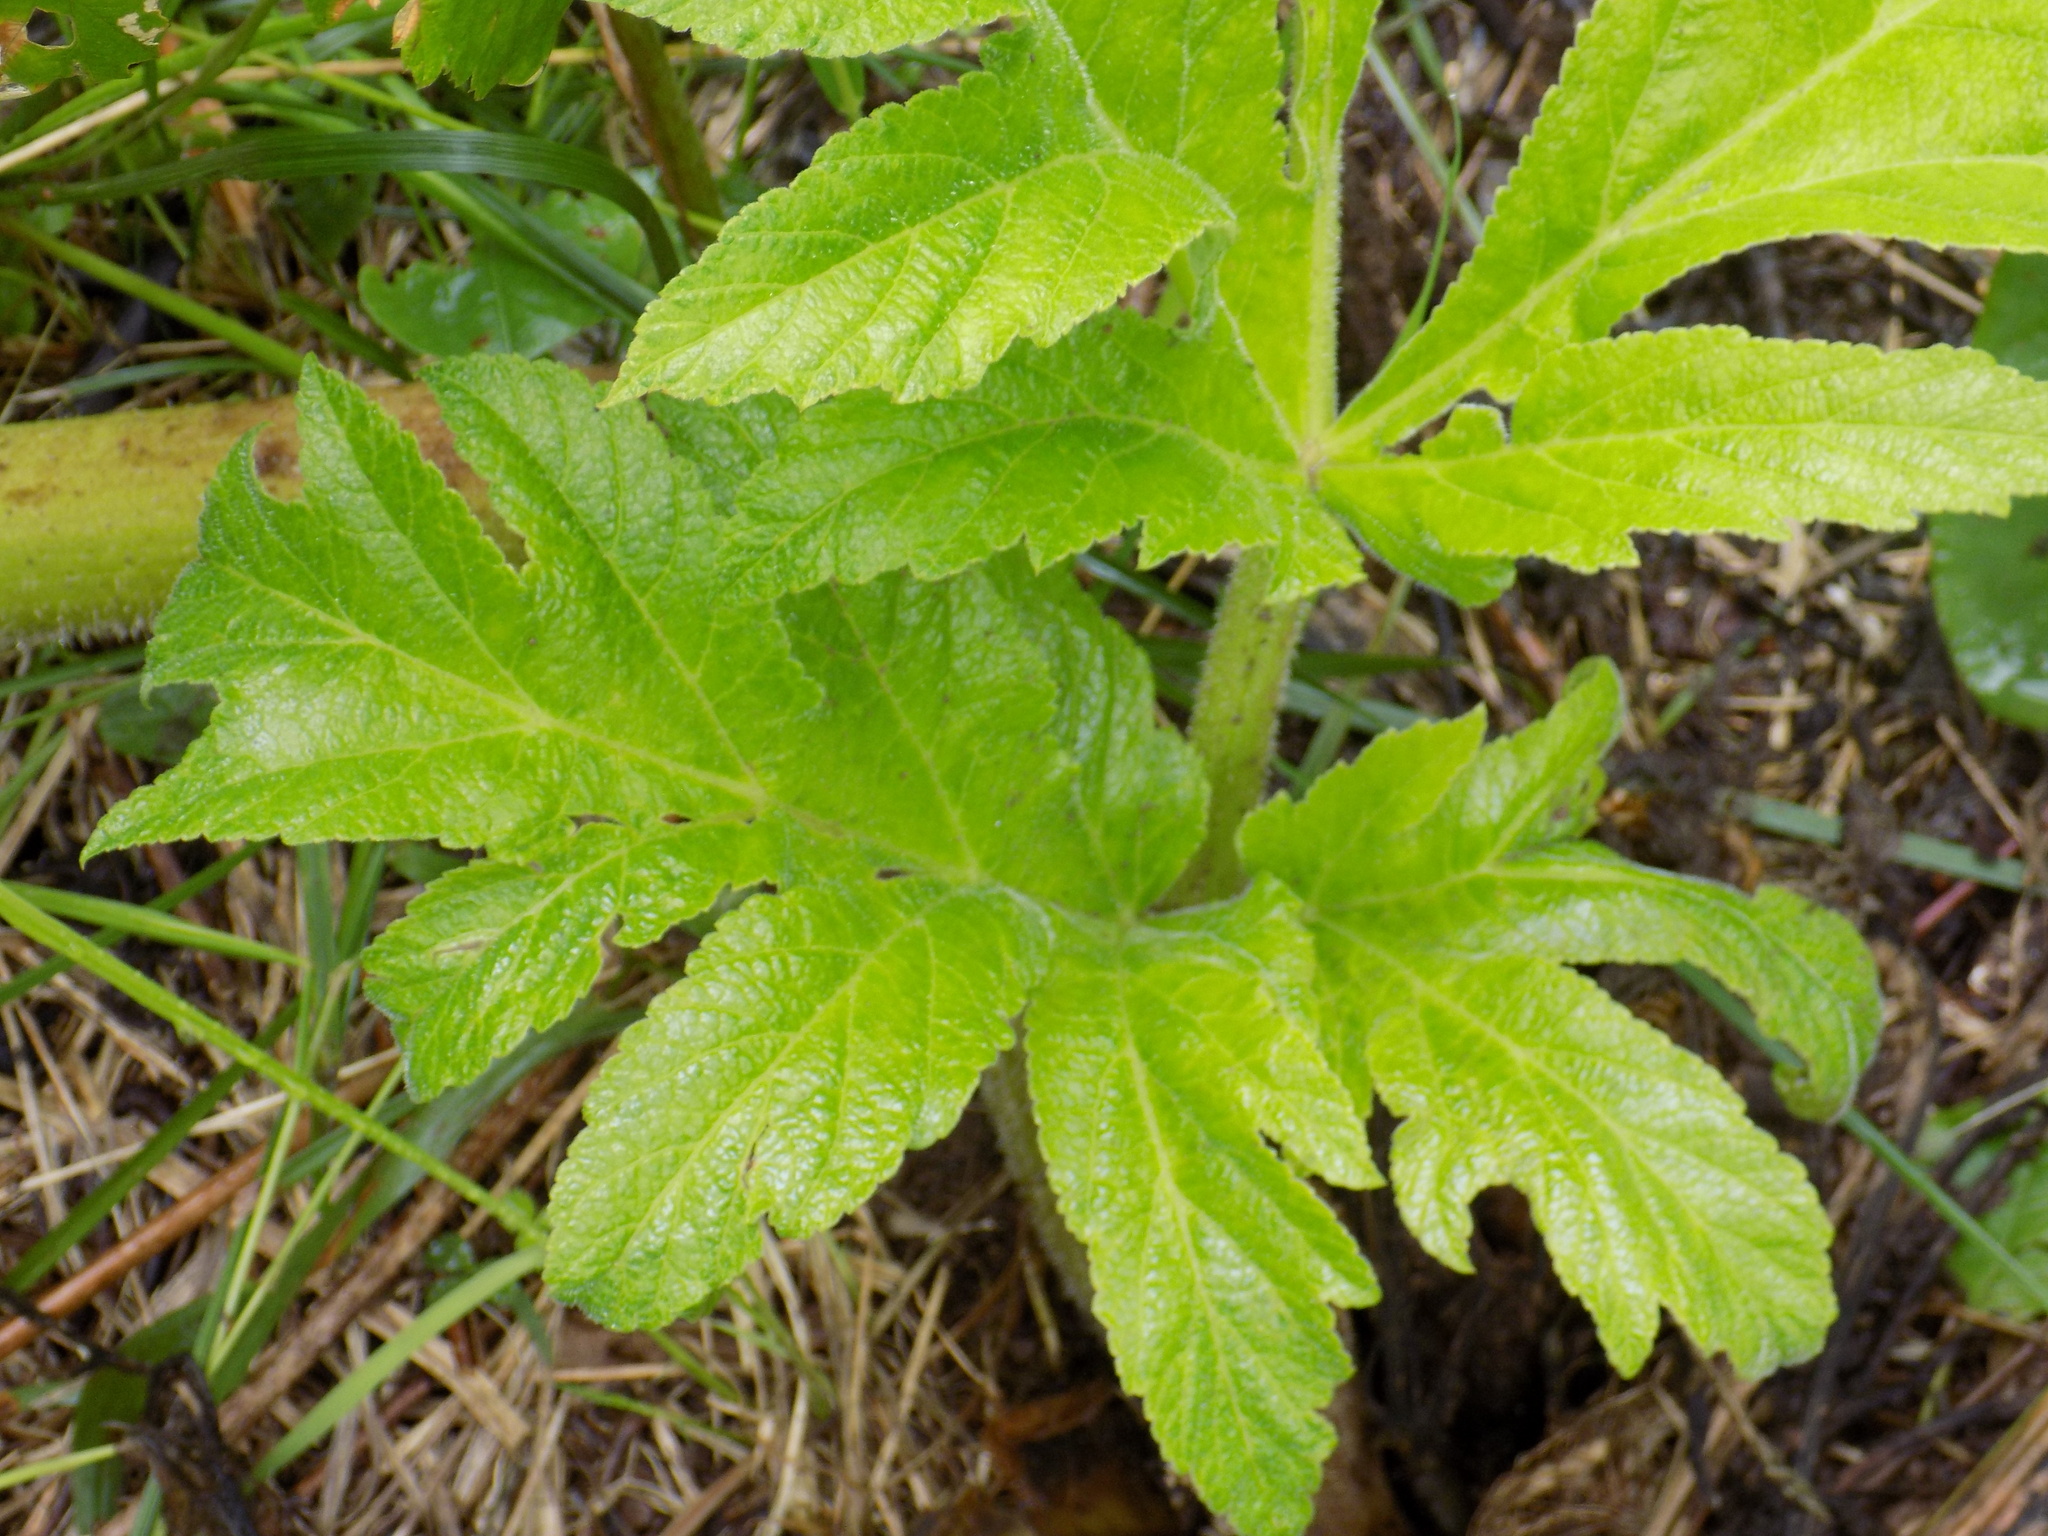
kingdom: Plantae
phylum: Tracheophyta
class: Magnoliopsida
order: Apiales
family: Apiaceae
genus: Heracleum
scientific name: Heracleum dissectum
